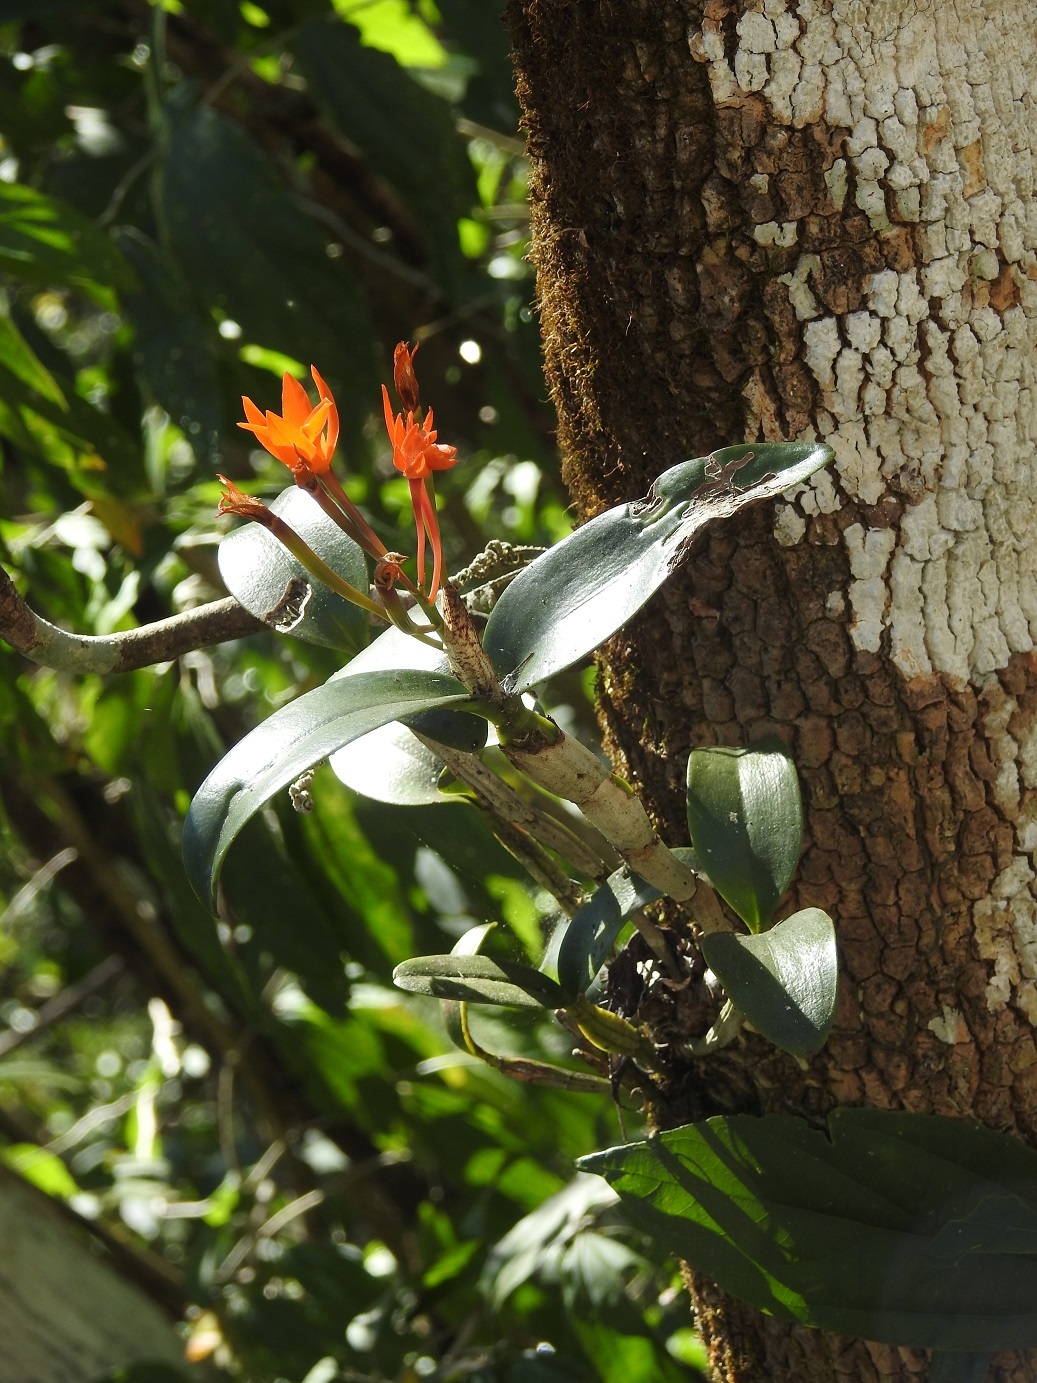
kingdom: Plantae
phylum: Tracheophyta
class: Liliopsida
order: Asparagales
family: Orchidaceae
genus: Guarianthe
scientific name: Guarianthe aurantiaca
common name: Orange cattleya
